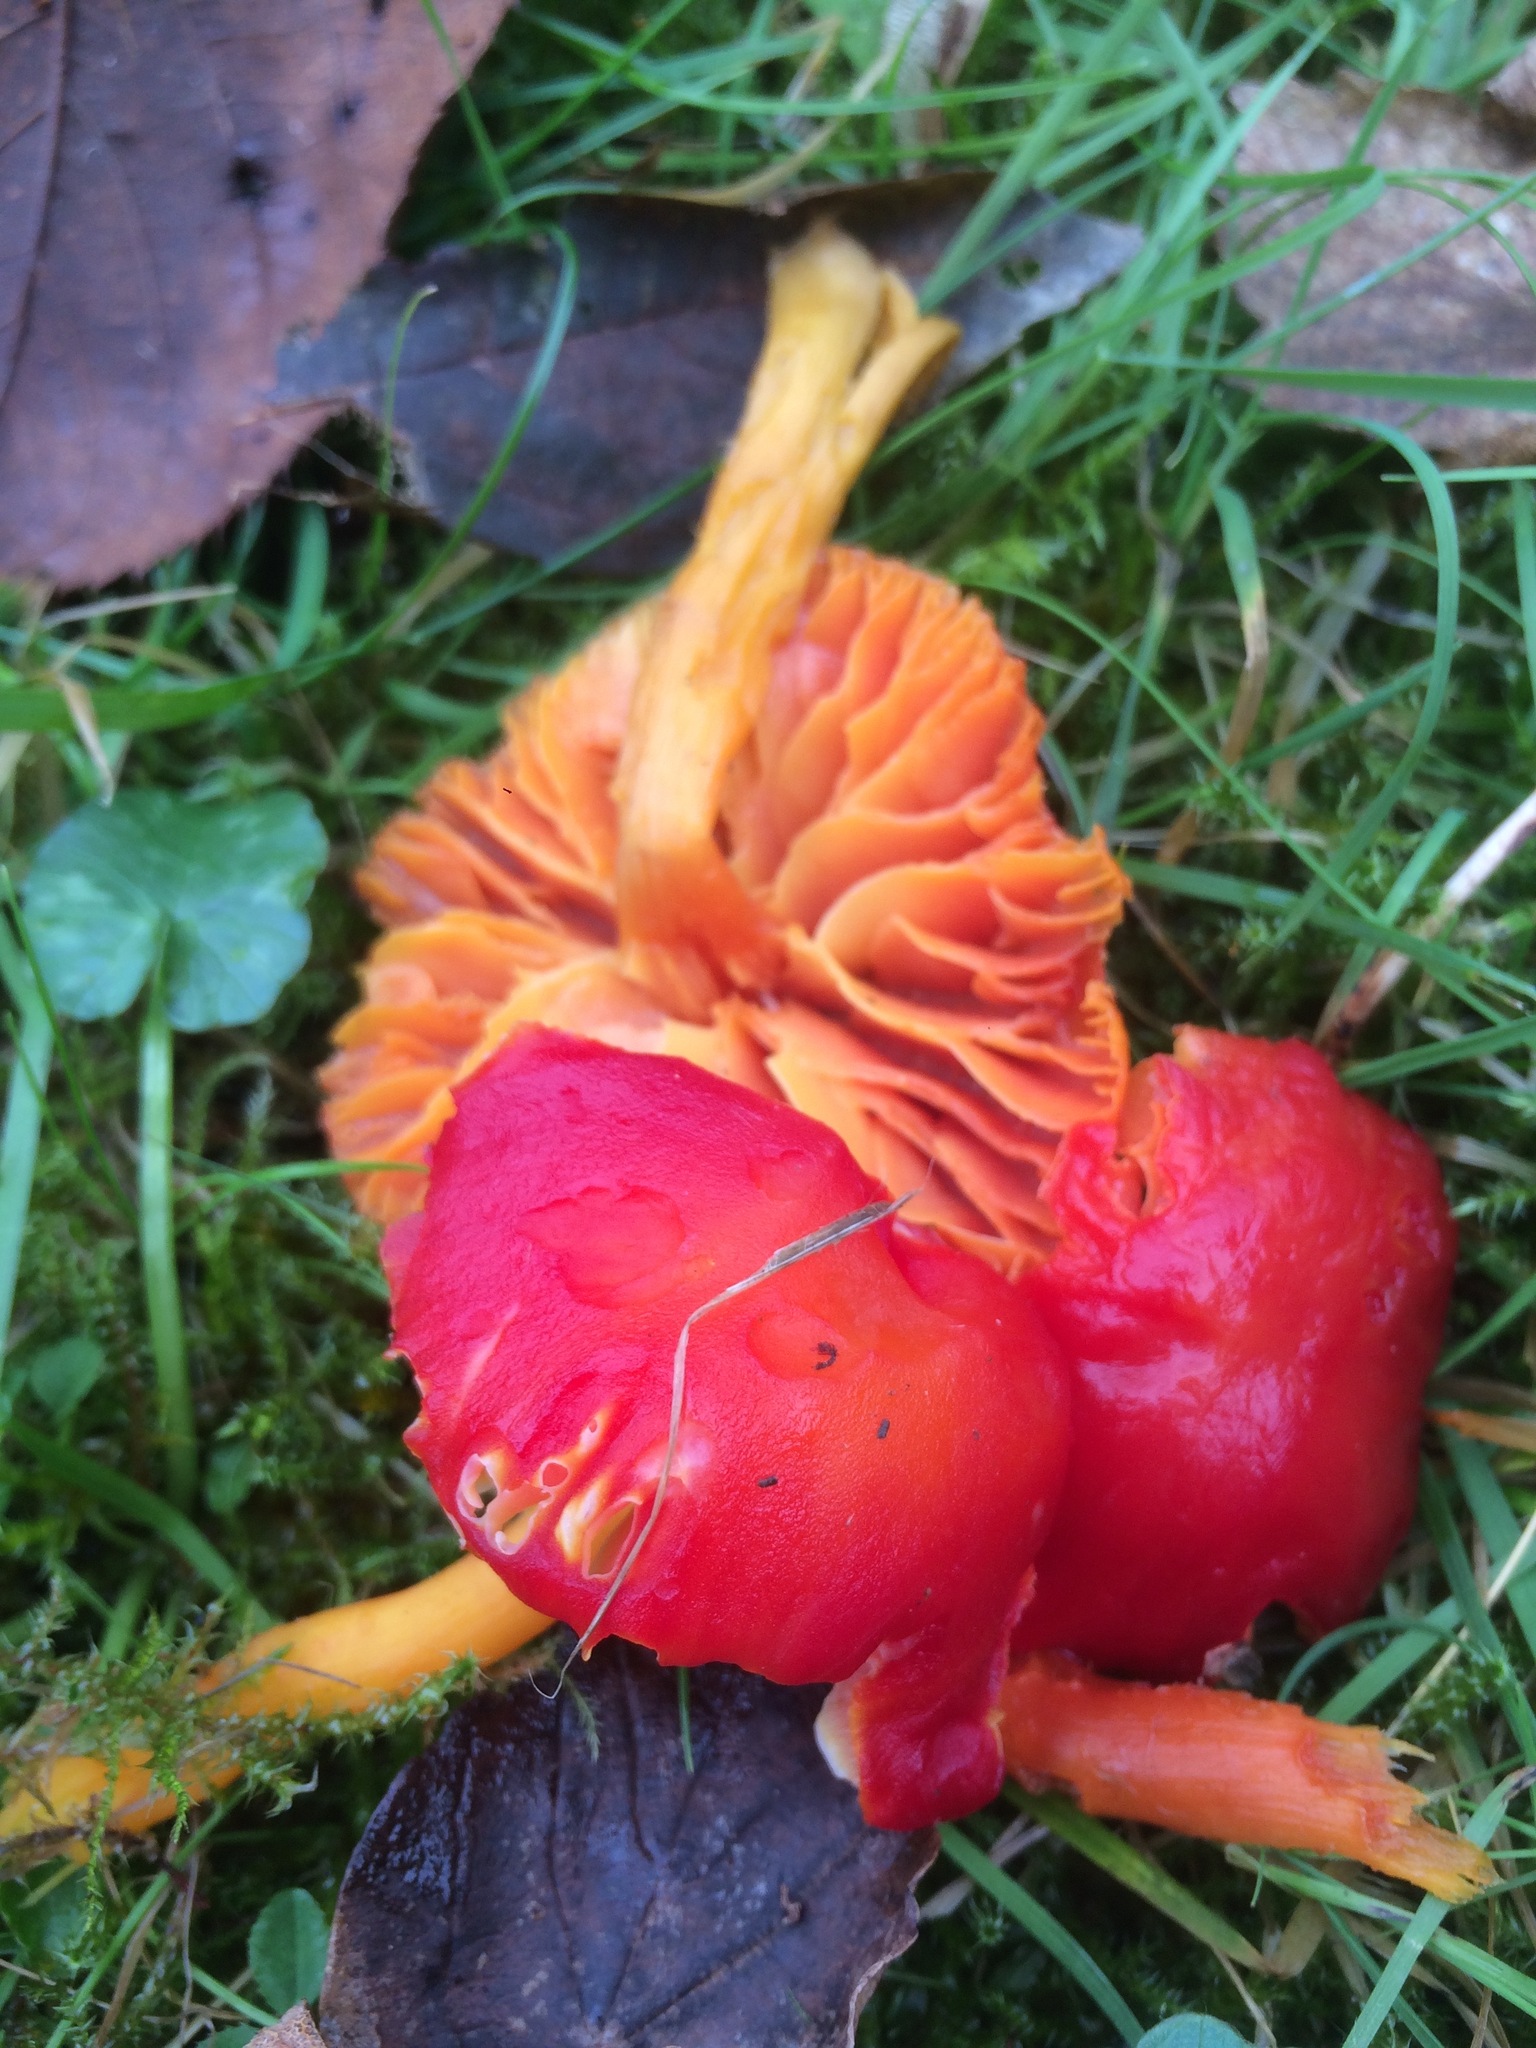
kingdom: Fungi
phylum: Basidiomycota
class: Agaricomycetes
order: Agaricales
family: Hygrophoraceae
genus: Hygrocybe
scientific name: Hygrocybe coccinea
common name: Scarlet hood
